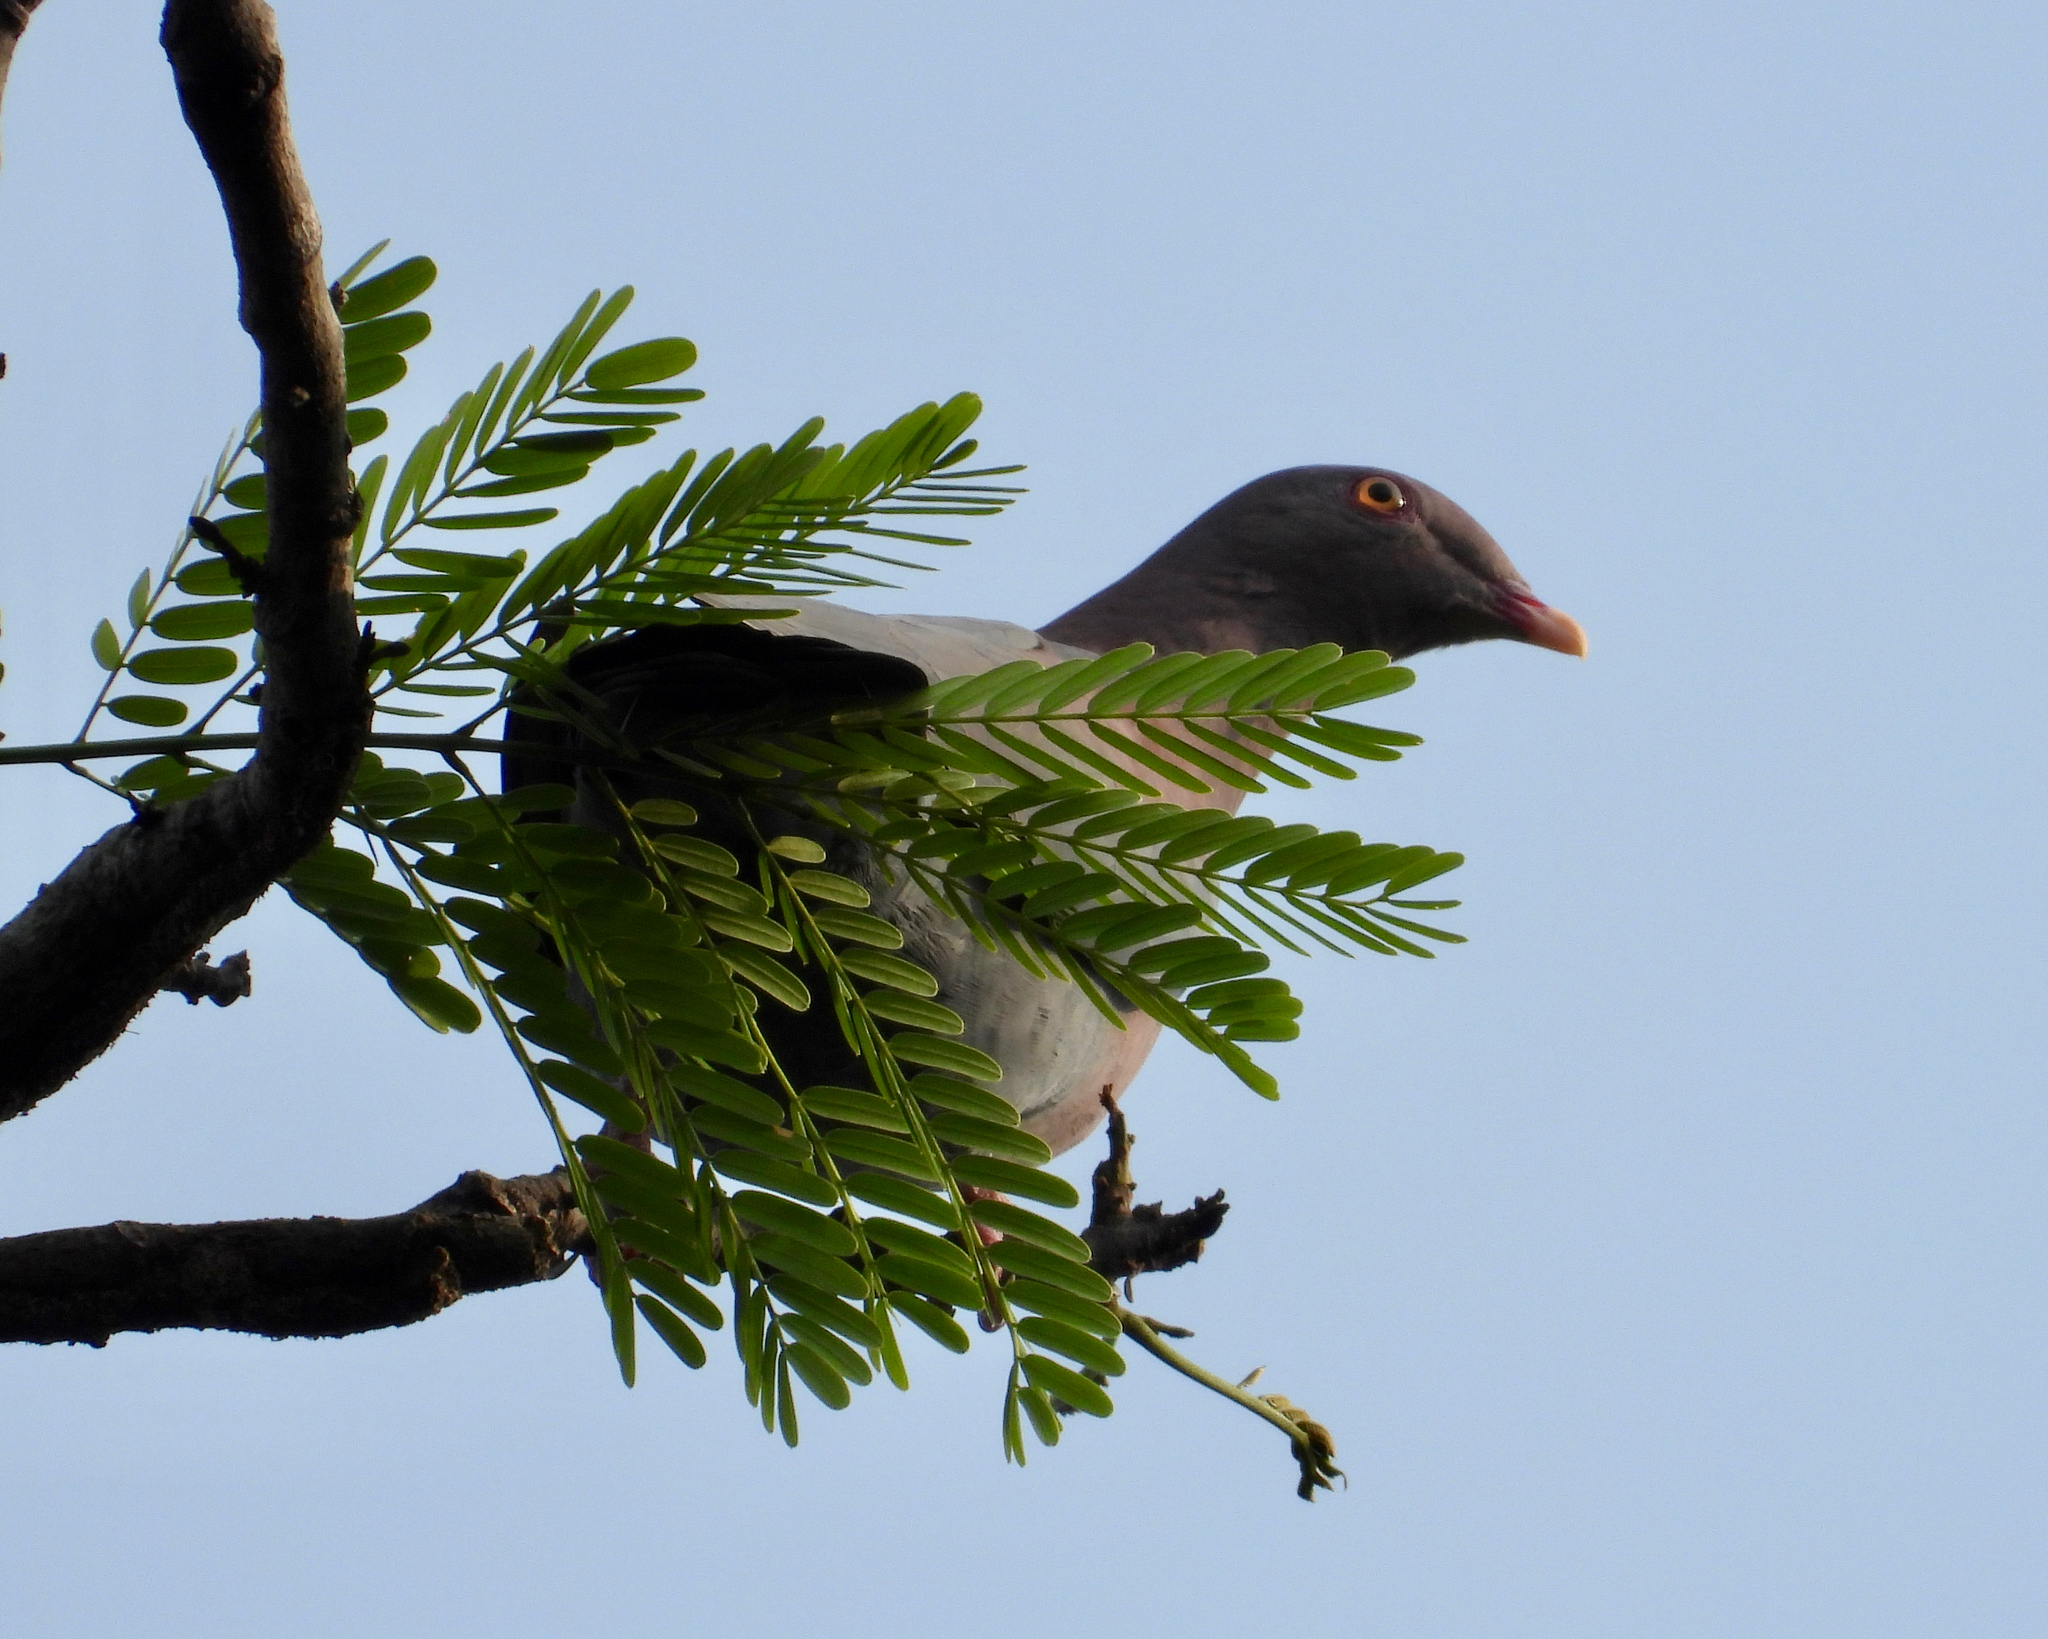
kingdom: Animalia
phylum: Chordata
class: Aves
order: Columbiformes
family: Columbidae
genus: Patagioenas
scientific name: Patagioenas flavirostris
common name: Red-billed pigeon
